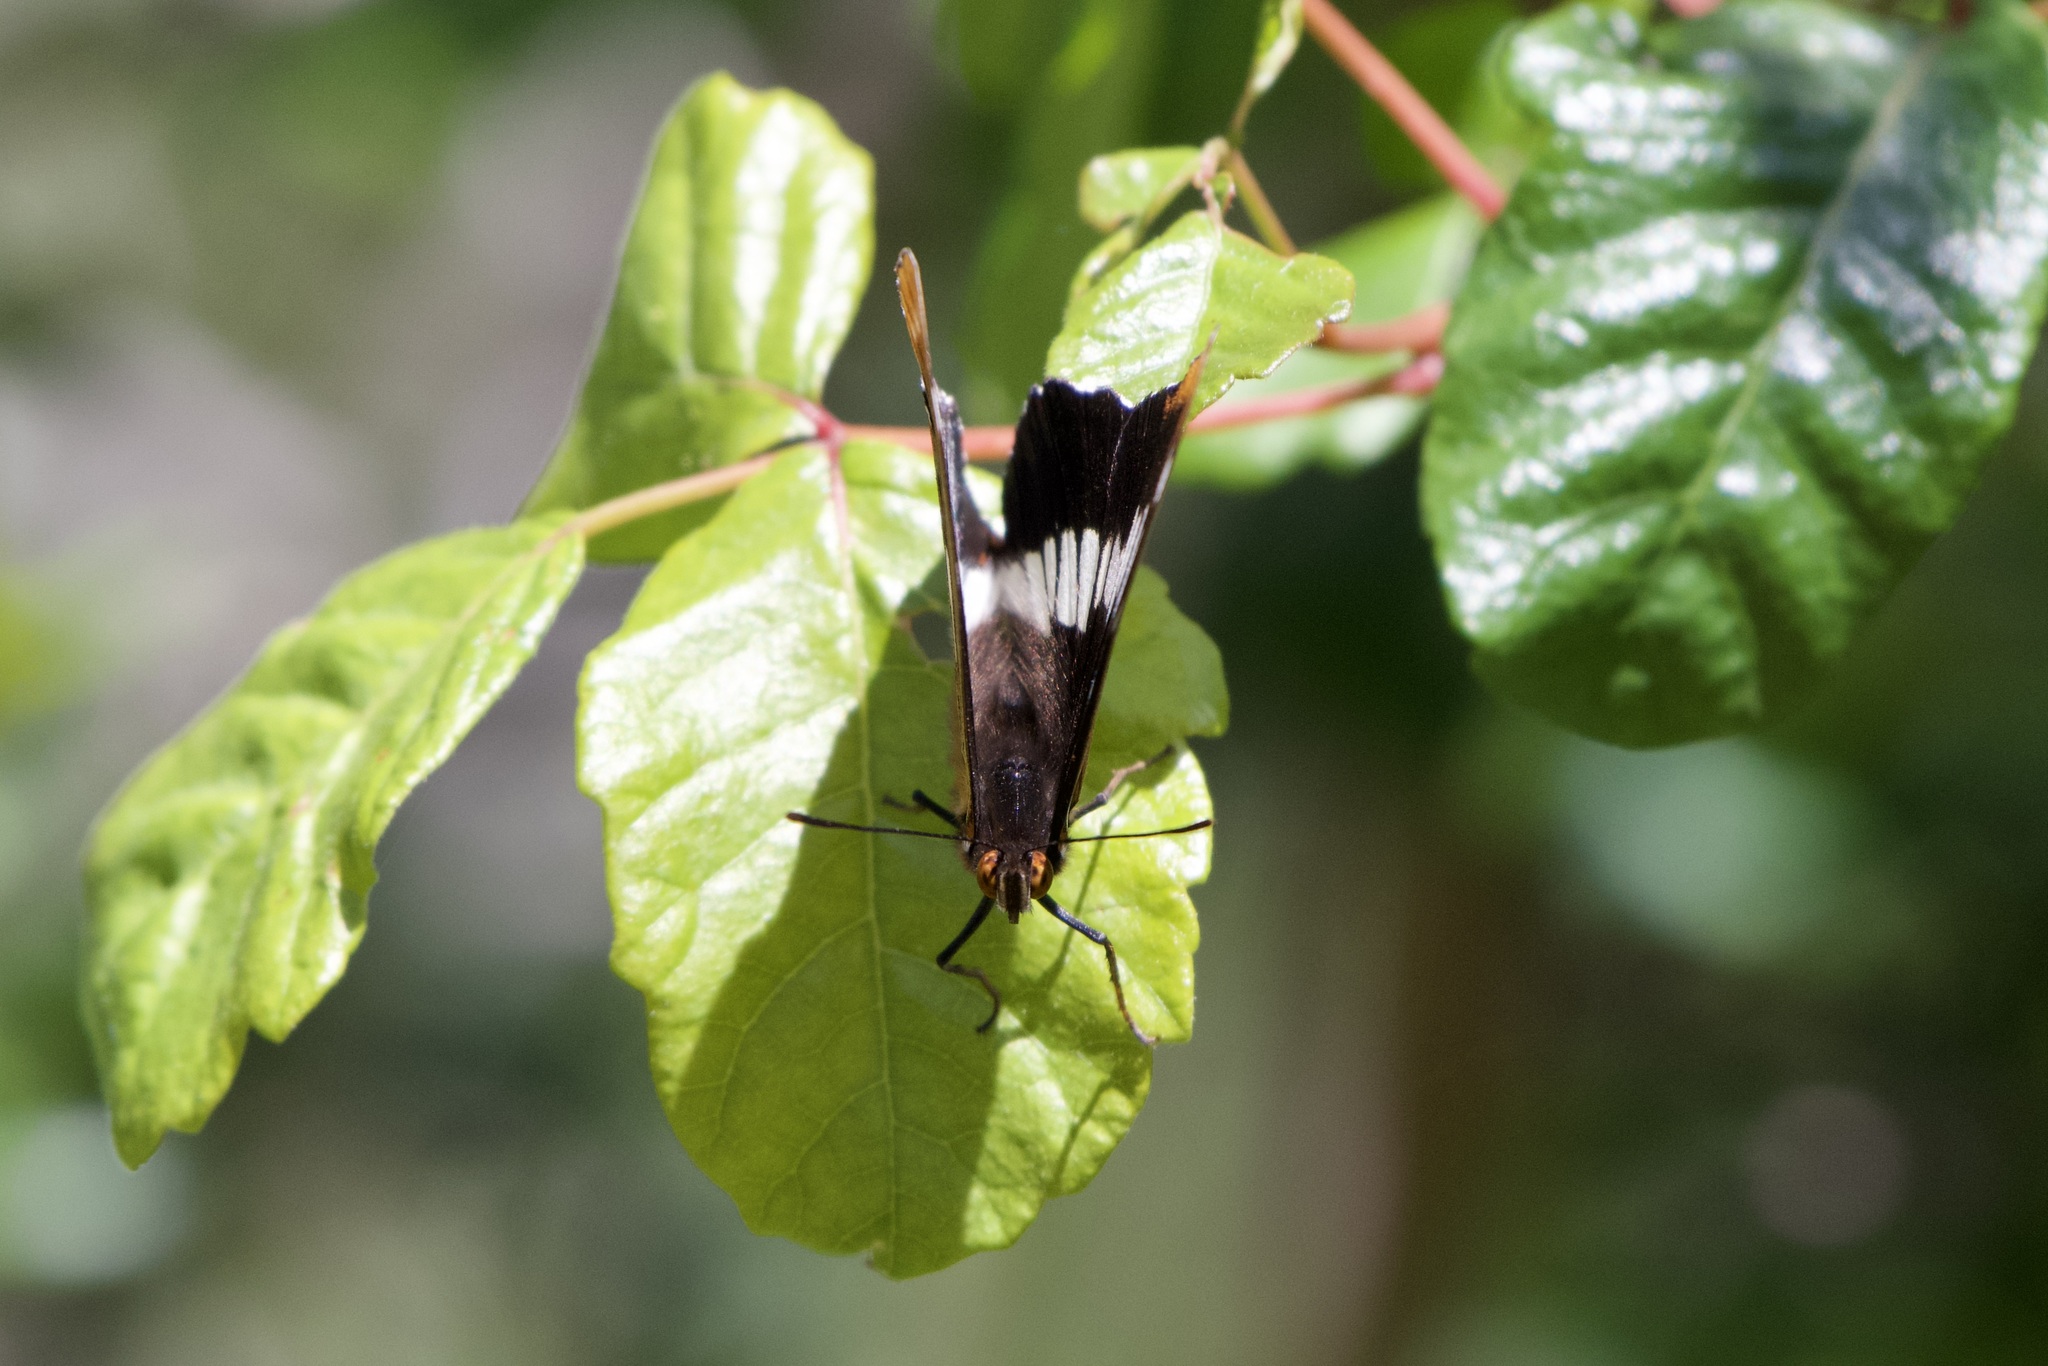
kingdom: Animalia
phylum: Arthropoda
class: Insecta
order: Lepidoptera
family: Nymphalidae
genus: Limenitis
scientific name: Limenitis lorquini
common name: Lorquin's admiral
